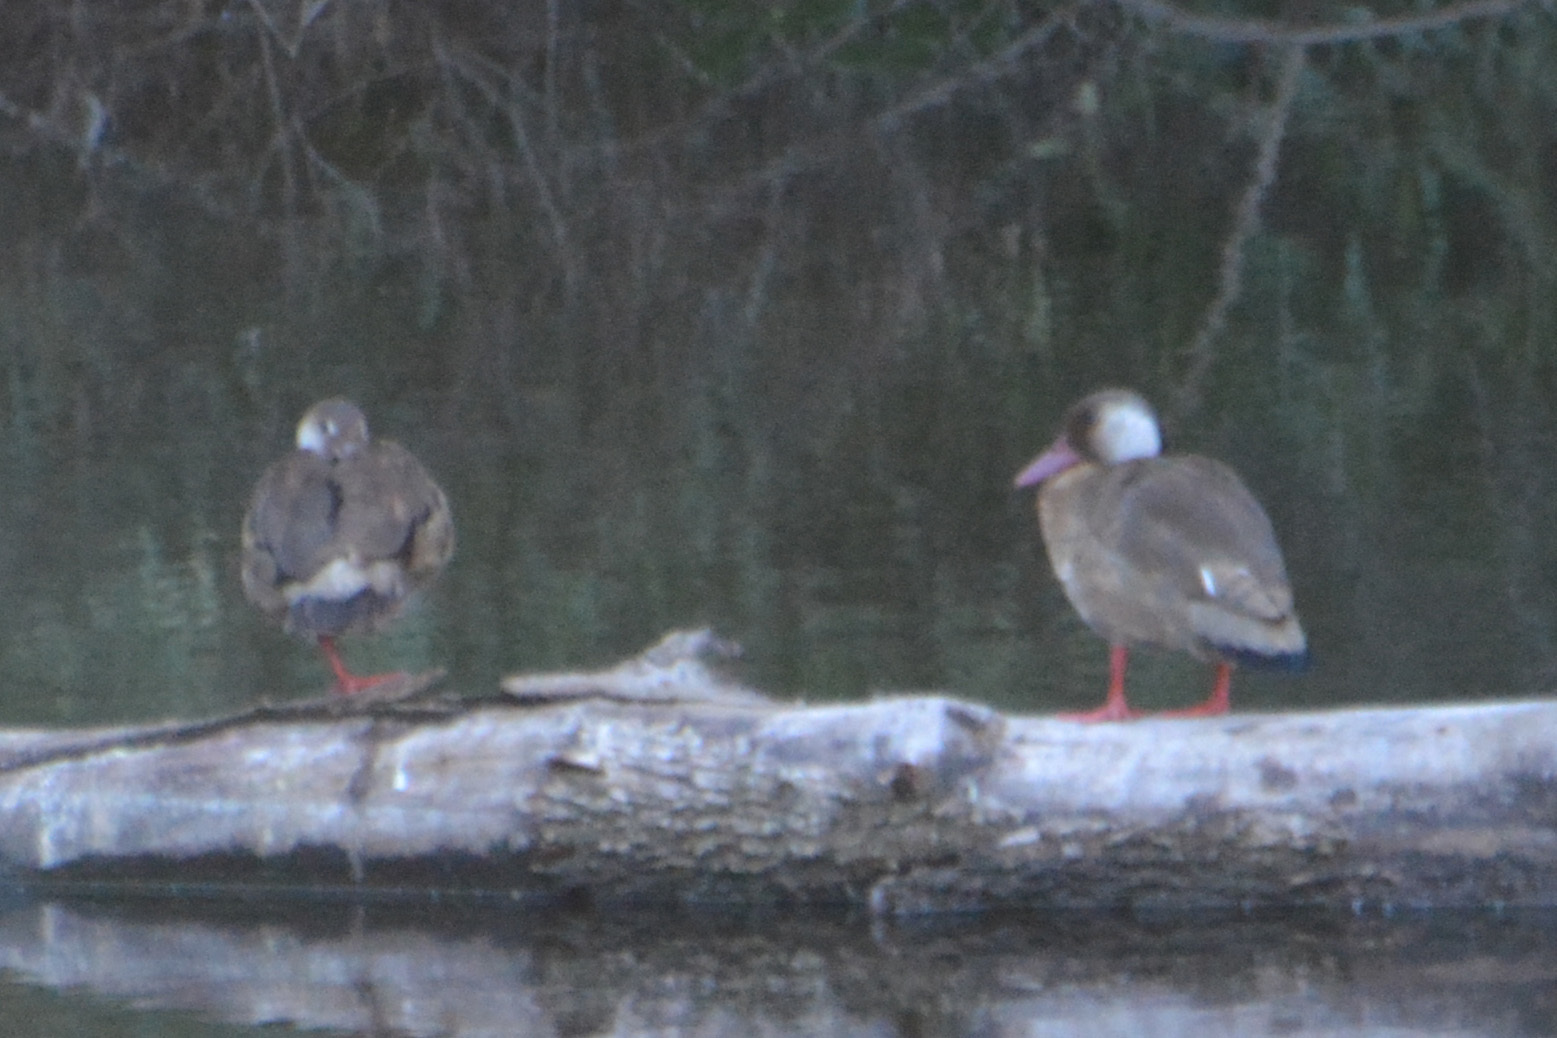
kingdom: Animalia
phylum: Chordata
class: Aves
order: Anseriformes
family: Anatidae
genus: Amazonetta
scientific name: Amazonetta brasiliensis
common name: Brazilian teal
